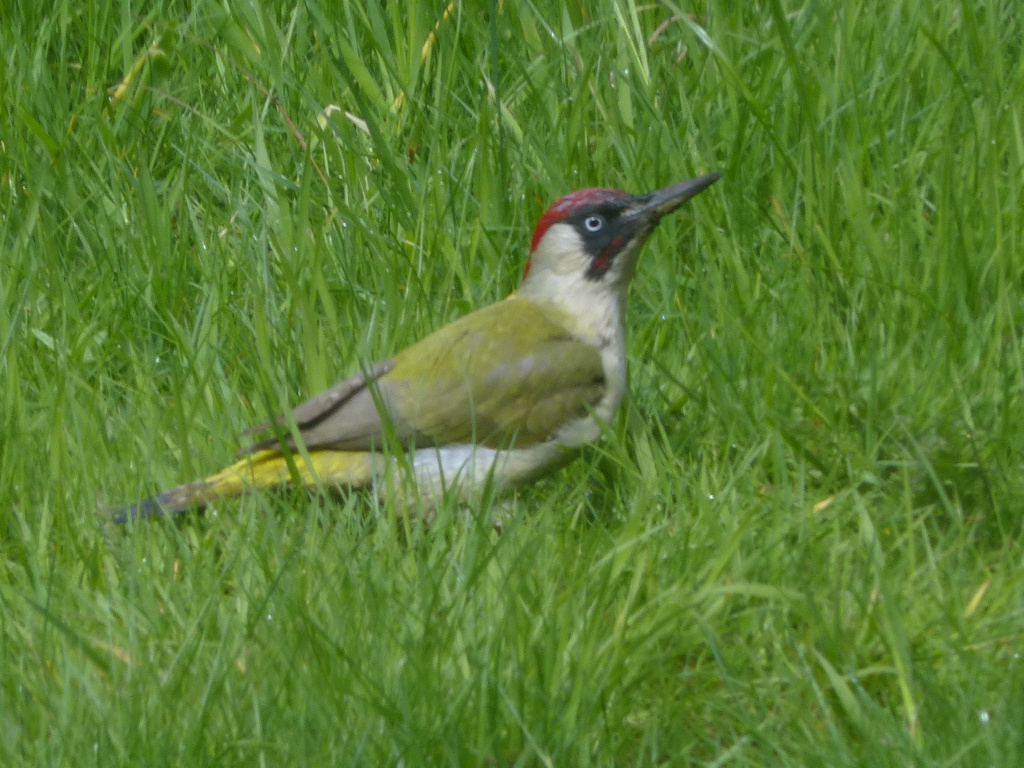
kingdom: Animalia
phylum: Chordata
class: Aves
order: Piciformes
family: Picidae
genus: Picus
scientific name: Picus viridis
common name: European green woodpecker
